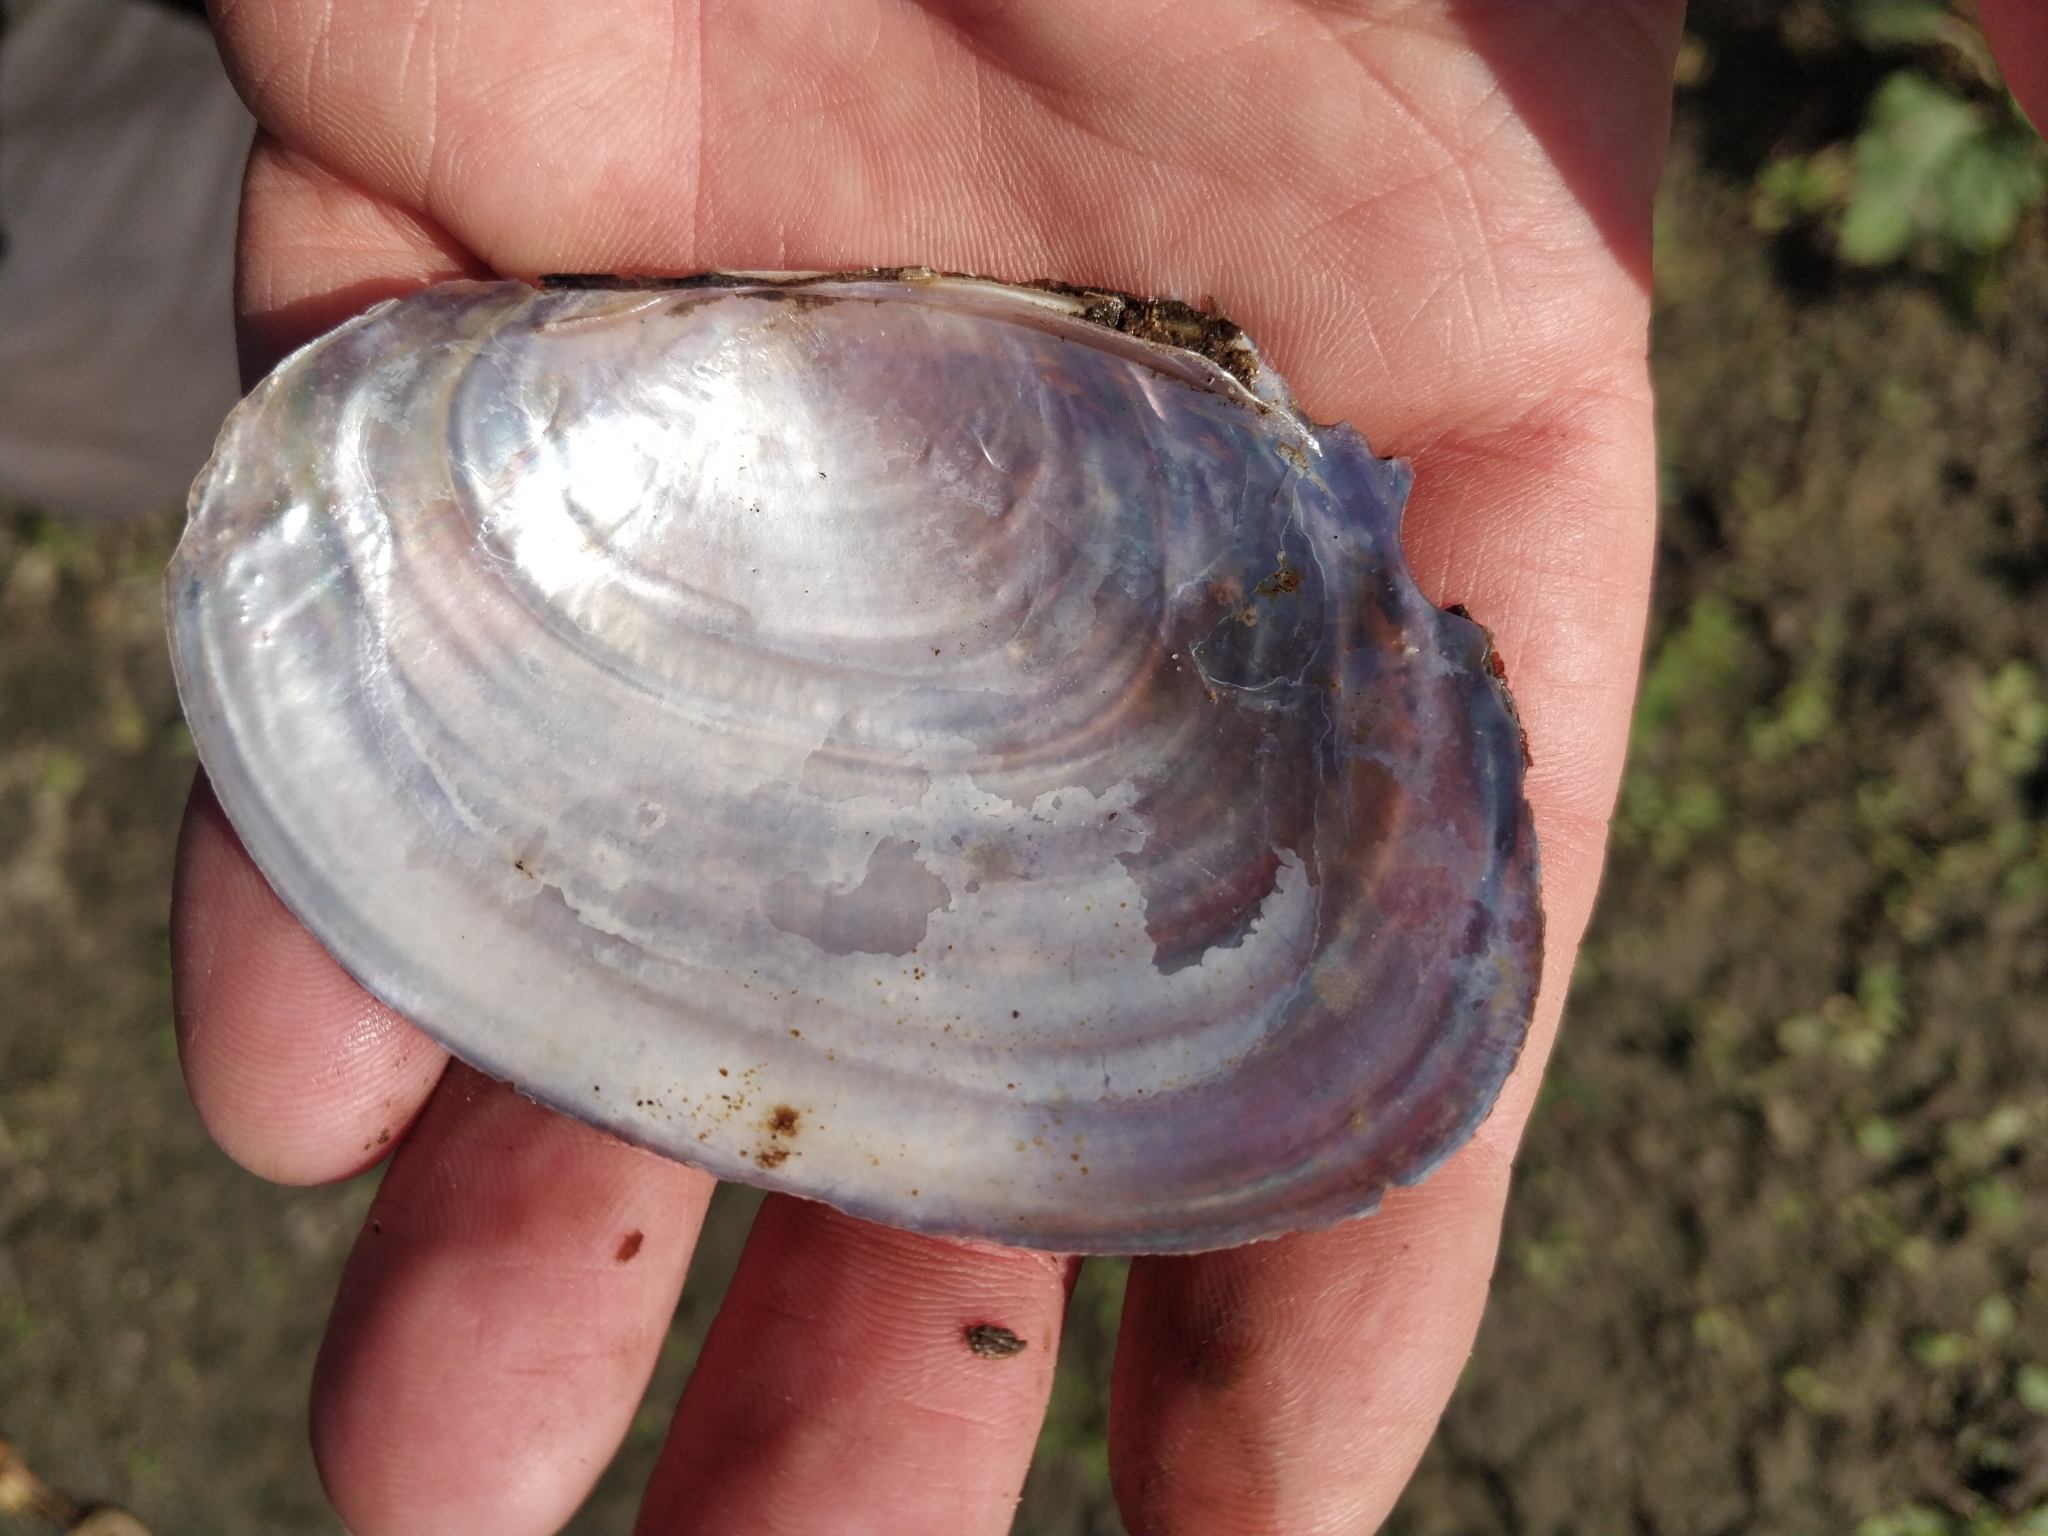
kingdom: Animalia
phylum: Mollusca
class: Bivalvia
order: Unionida
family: Unionidae
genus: Potamilus
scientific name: Potamilus ohiensis
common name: Pink papershell
